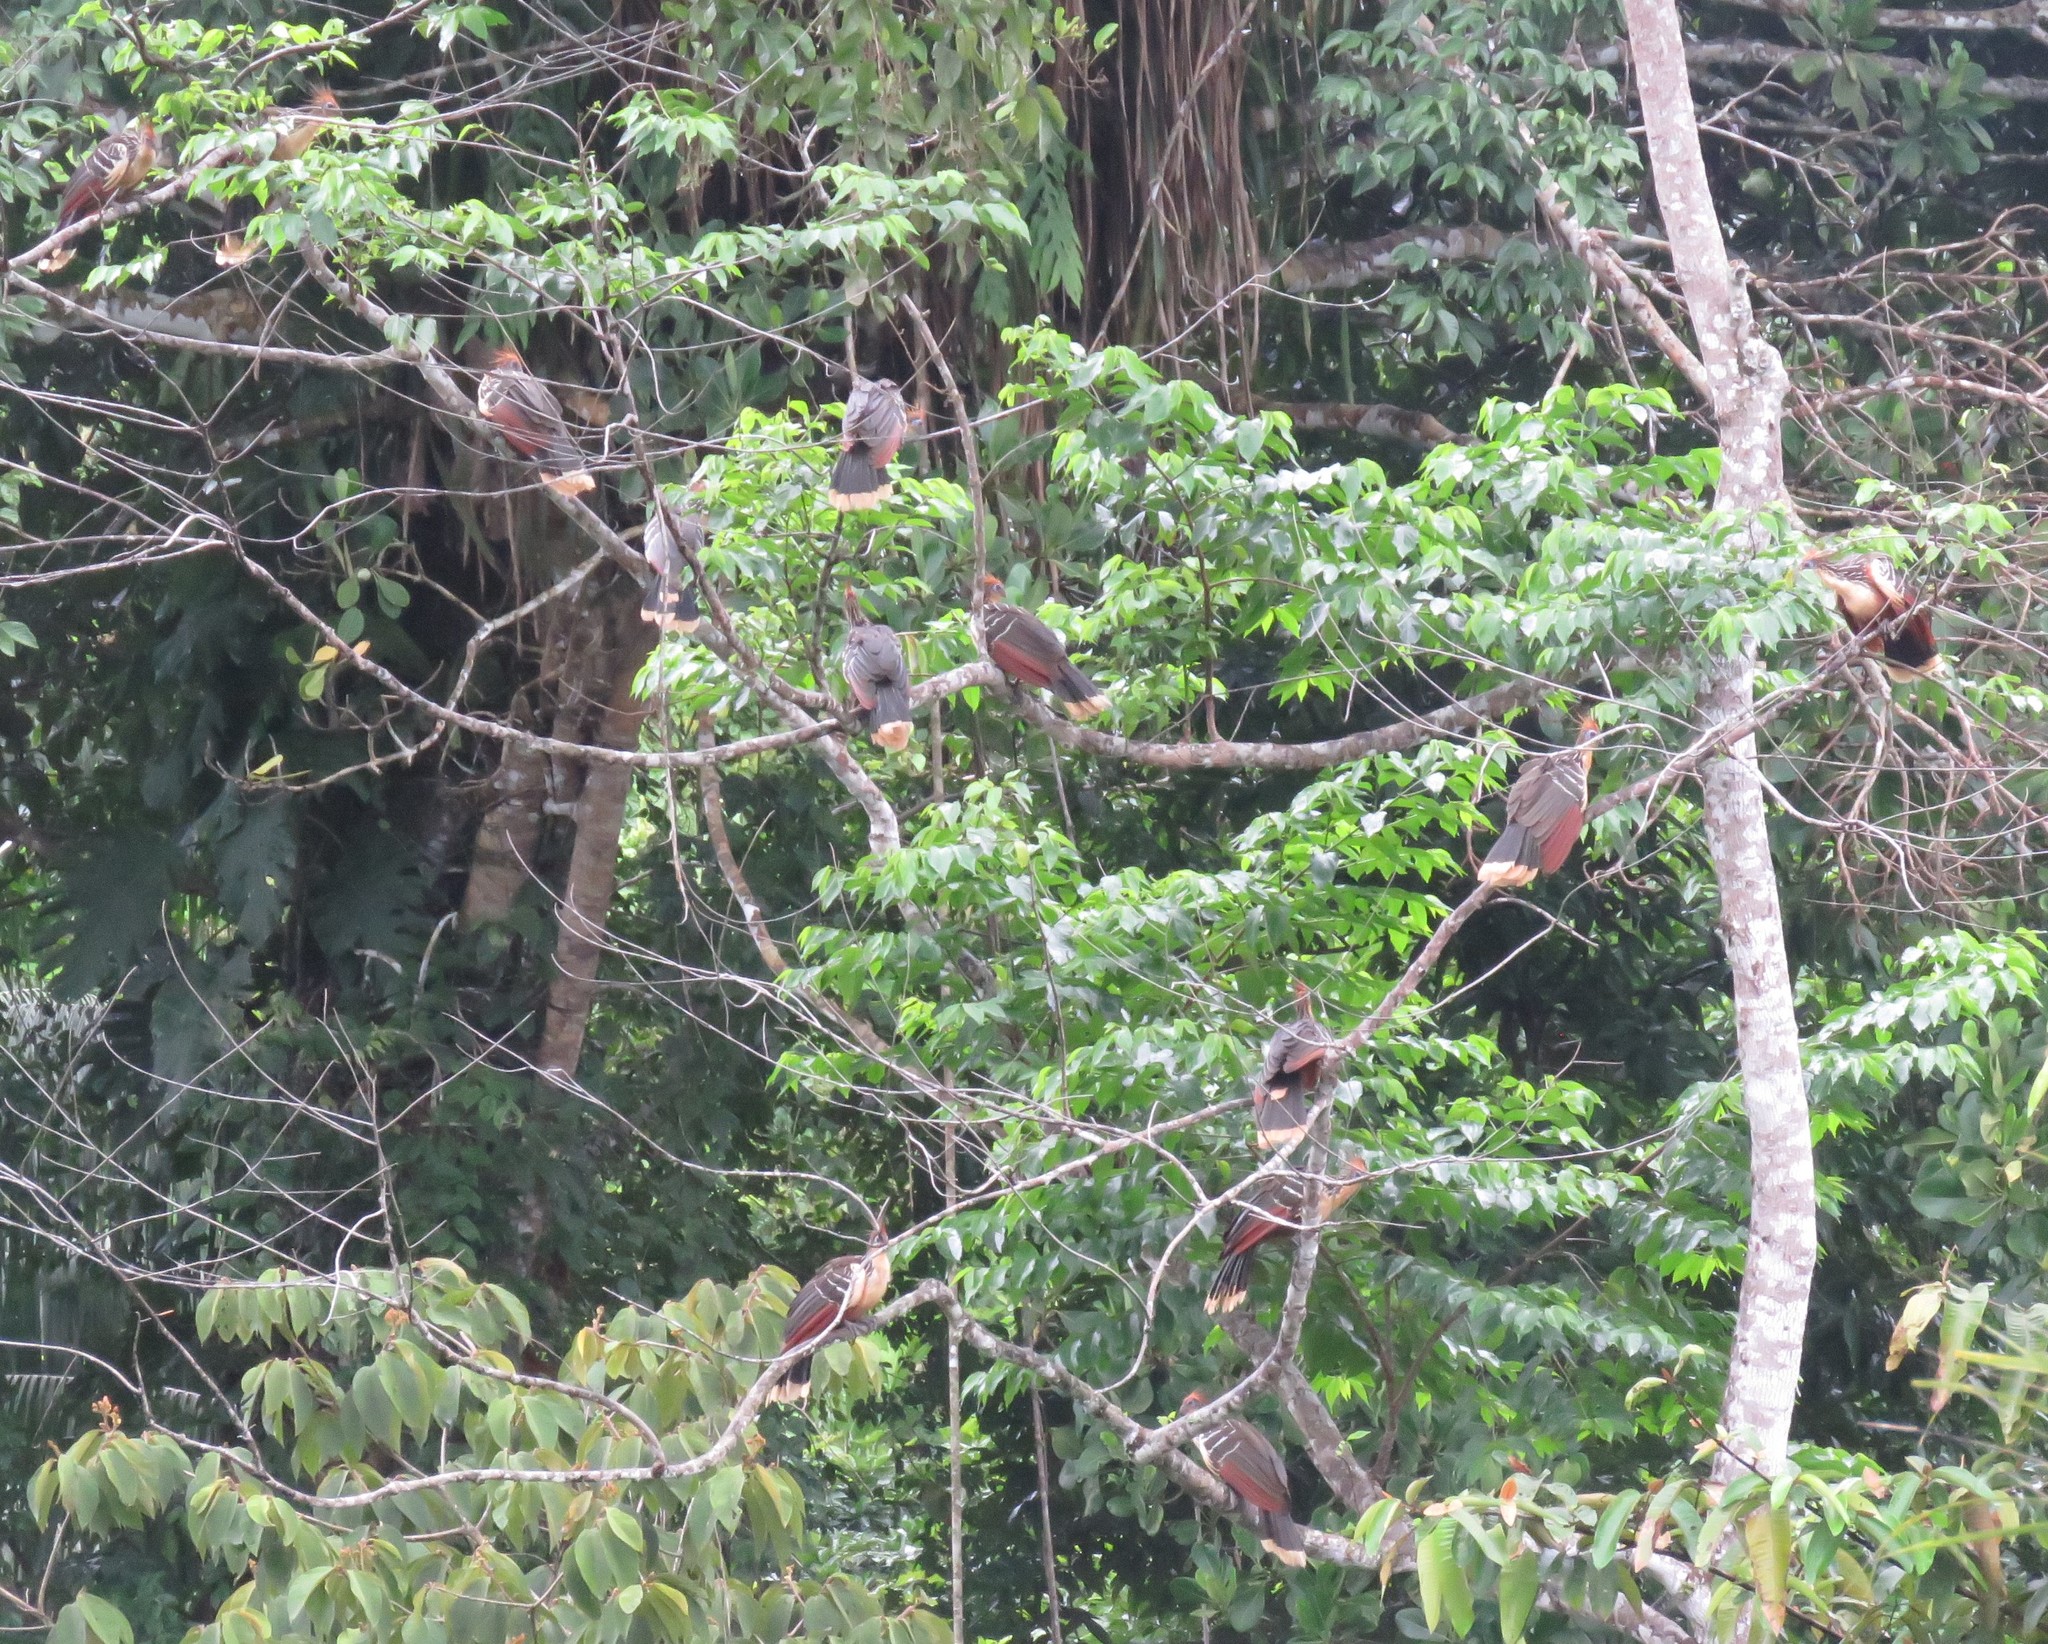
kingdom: Animalia
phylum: Chordata
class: Aves
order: Opisthocomiformes
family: Opisthocomidae
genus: Opisthocomus
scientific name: Opisthocomus hoazin
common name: Hoatzin
